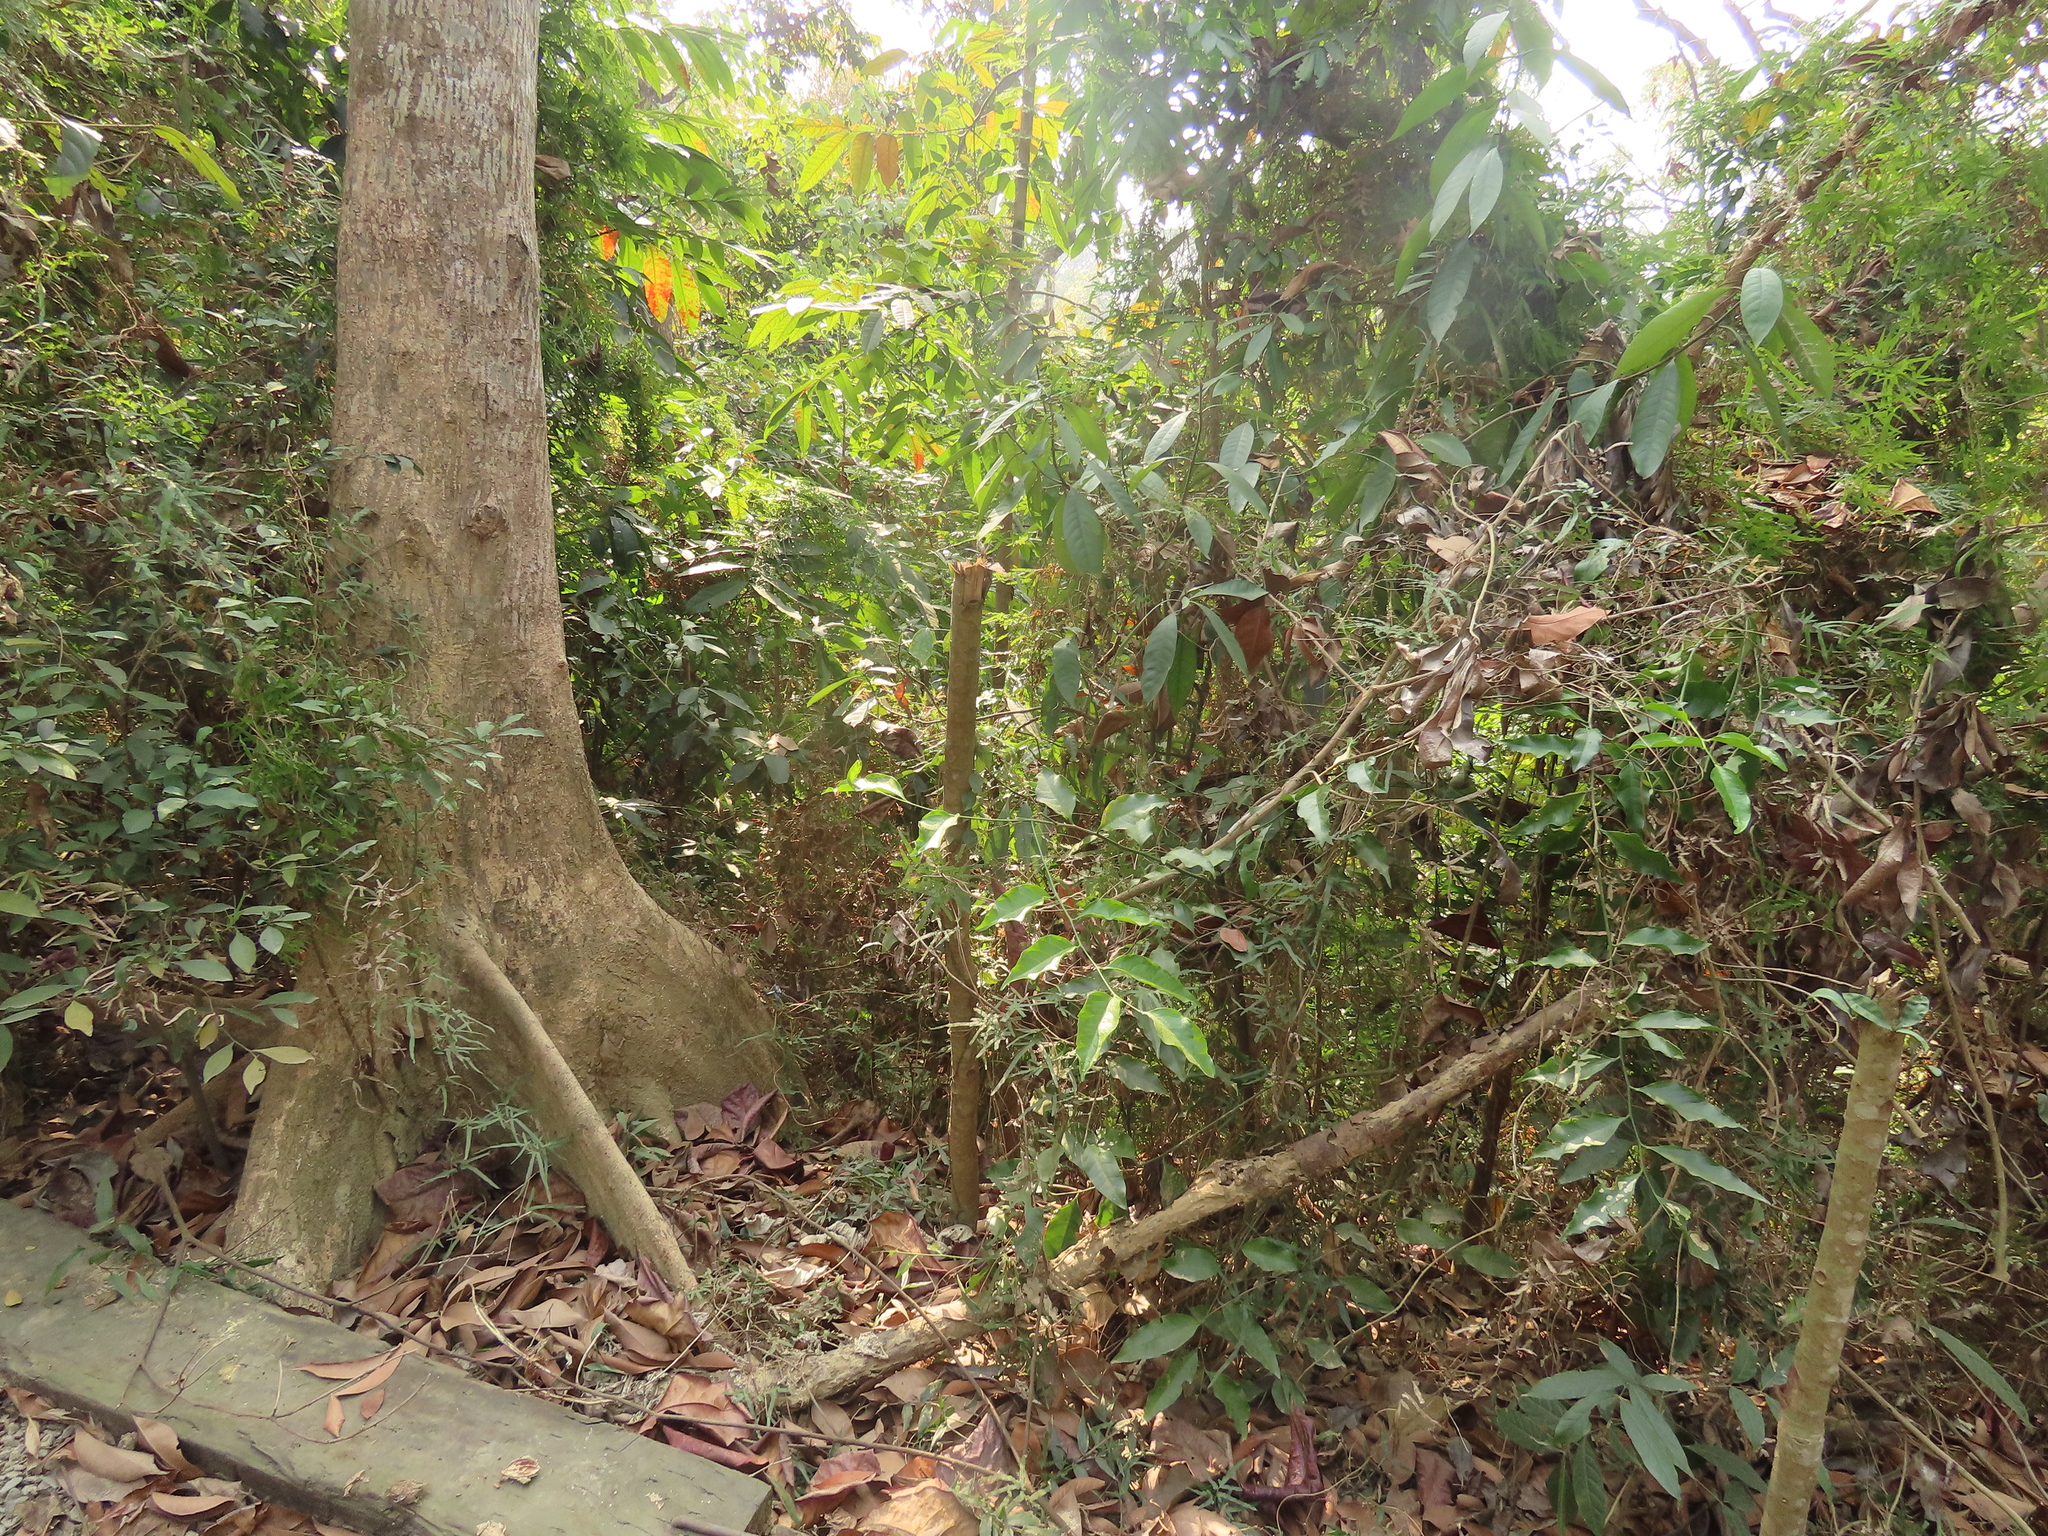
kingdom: Plantae
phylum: Tracheophyta
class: Magnoliopsida
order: Santalales
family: Opiliaceae
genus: Champereia
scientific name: Champereia manillana
